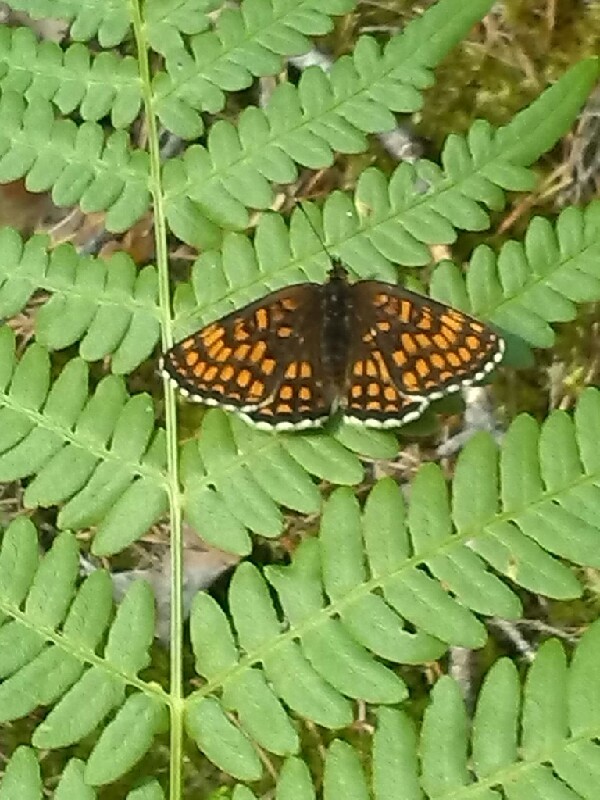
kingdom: Animalia
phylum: Arthropoda
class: Insecta
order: Lepidoptera
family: Nymphalidae
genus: Melitaea
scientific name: Melitaea athalia
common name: Heath fritillary
